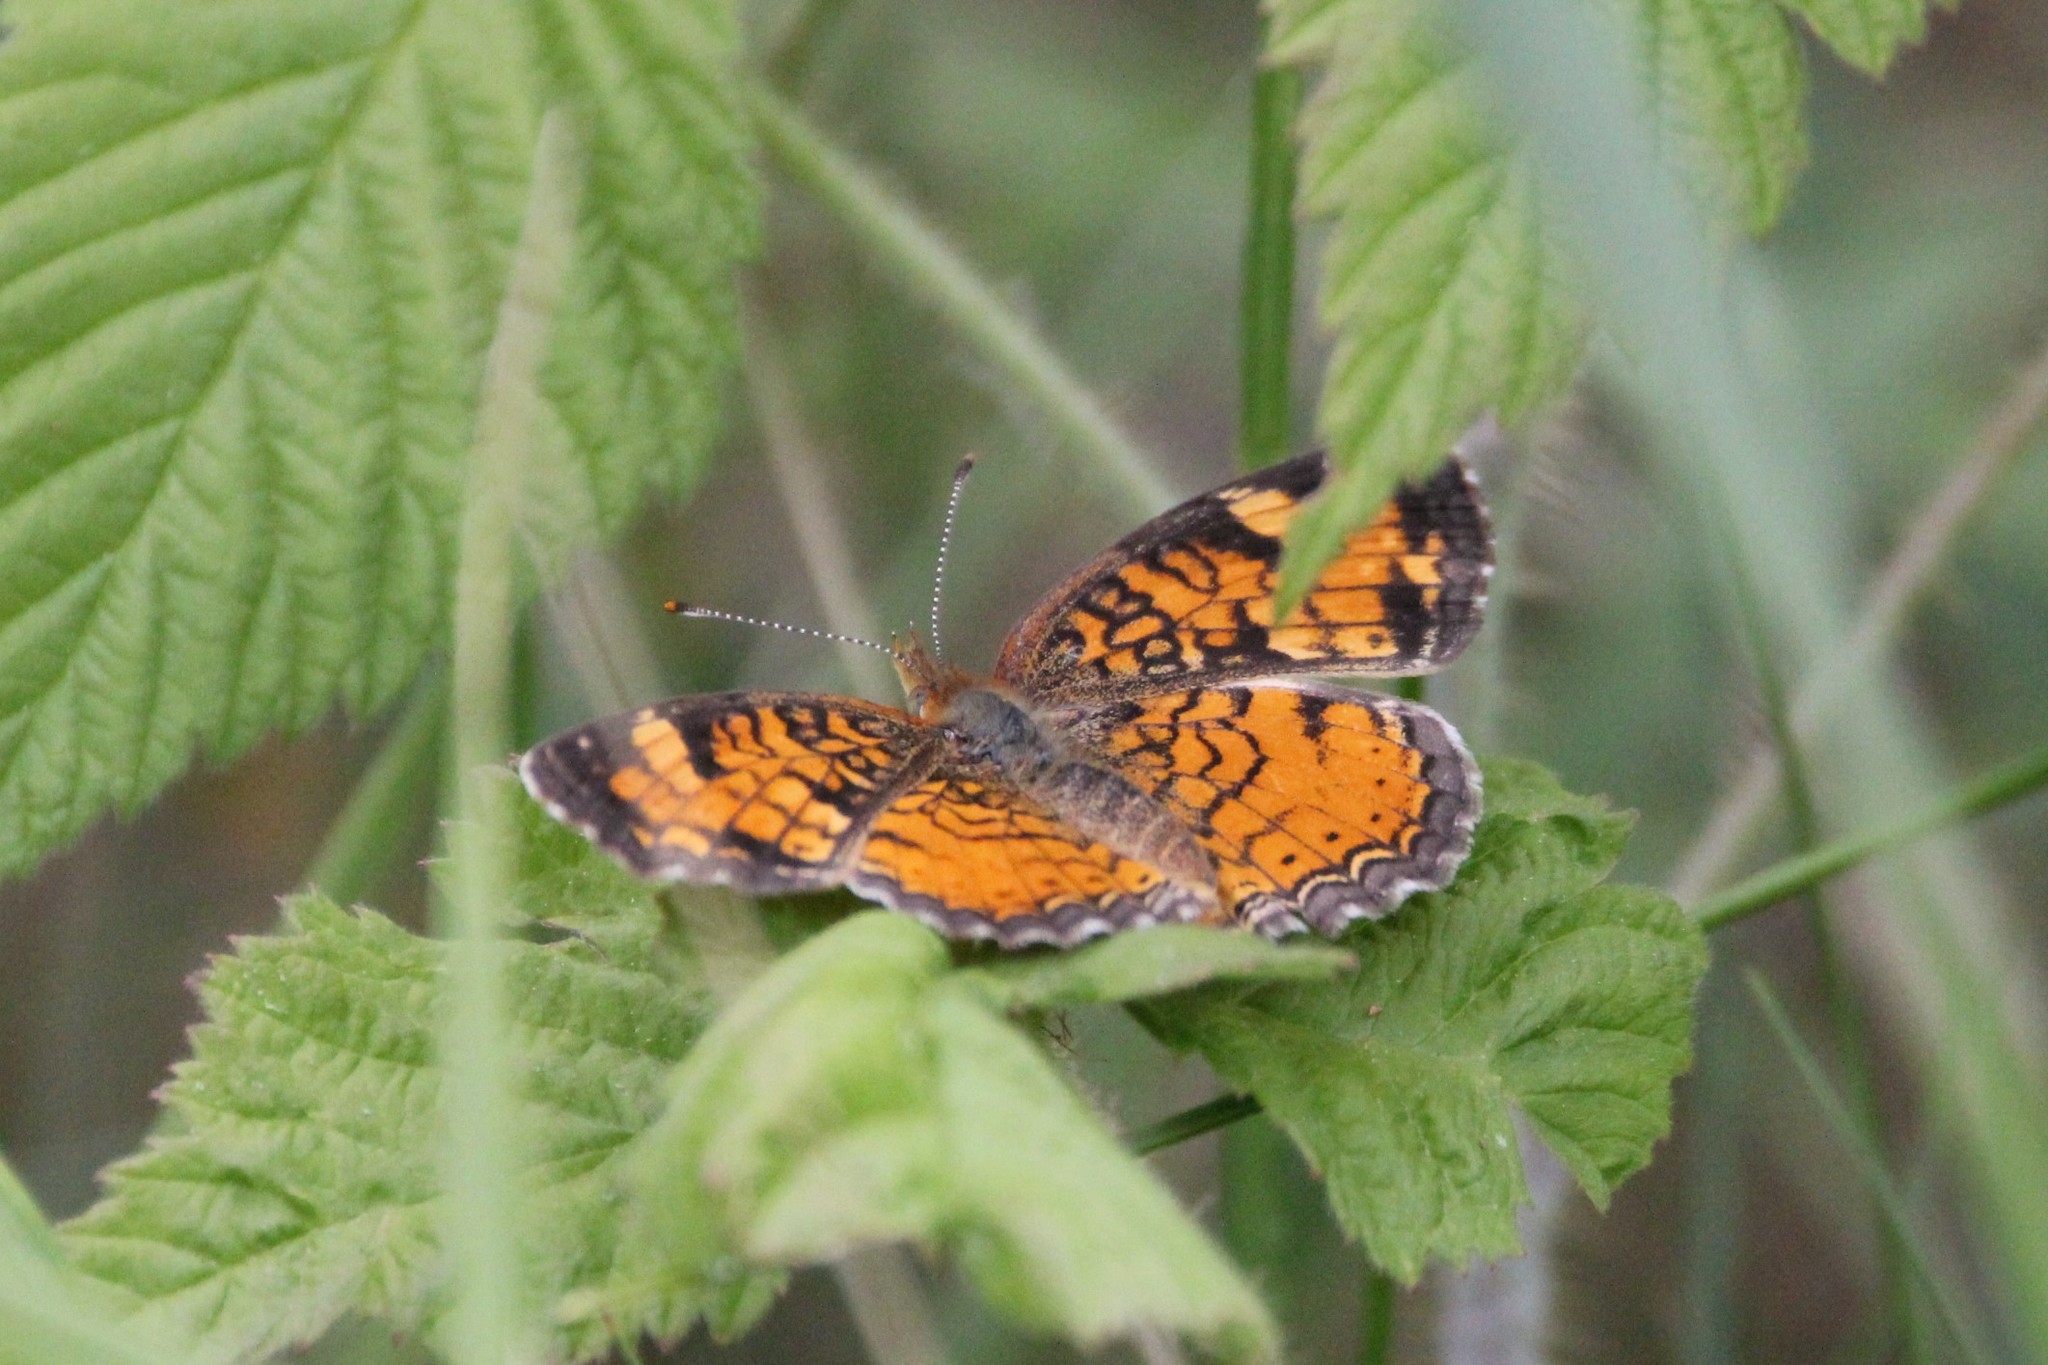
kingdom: Animalia
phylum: Arthropoda
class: Insecta
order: Lepidoptera
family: Nymphalidae
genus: Phyciodes
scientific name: Phyciodes tharos
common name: Pearl crescent
